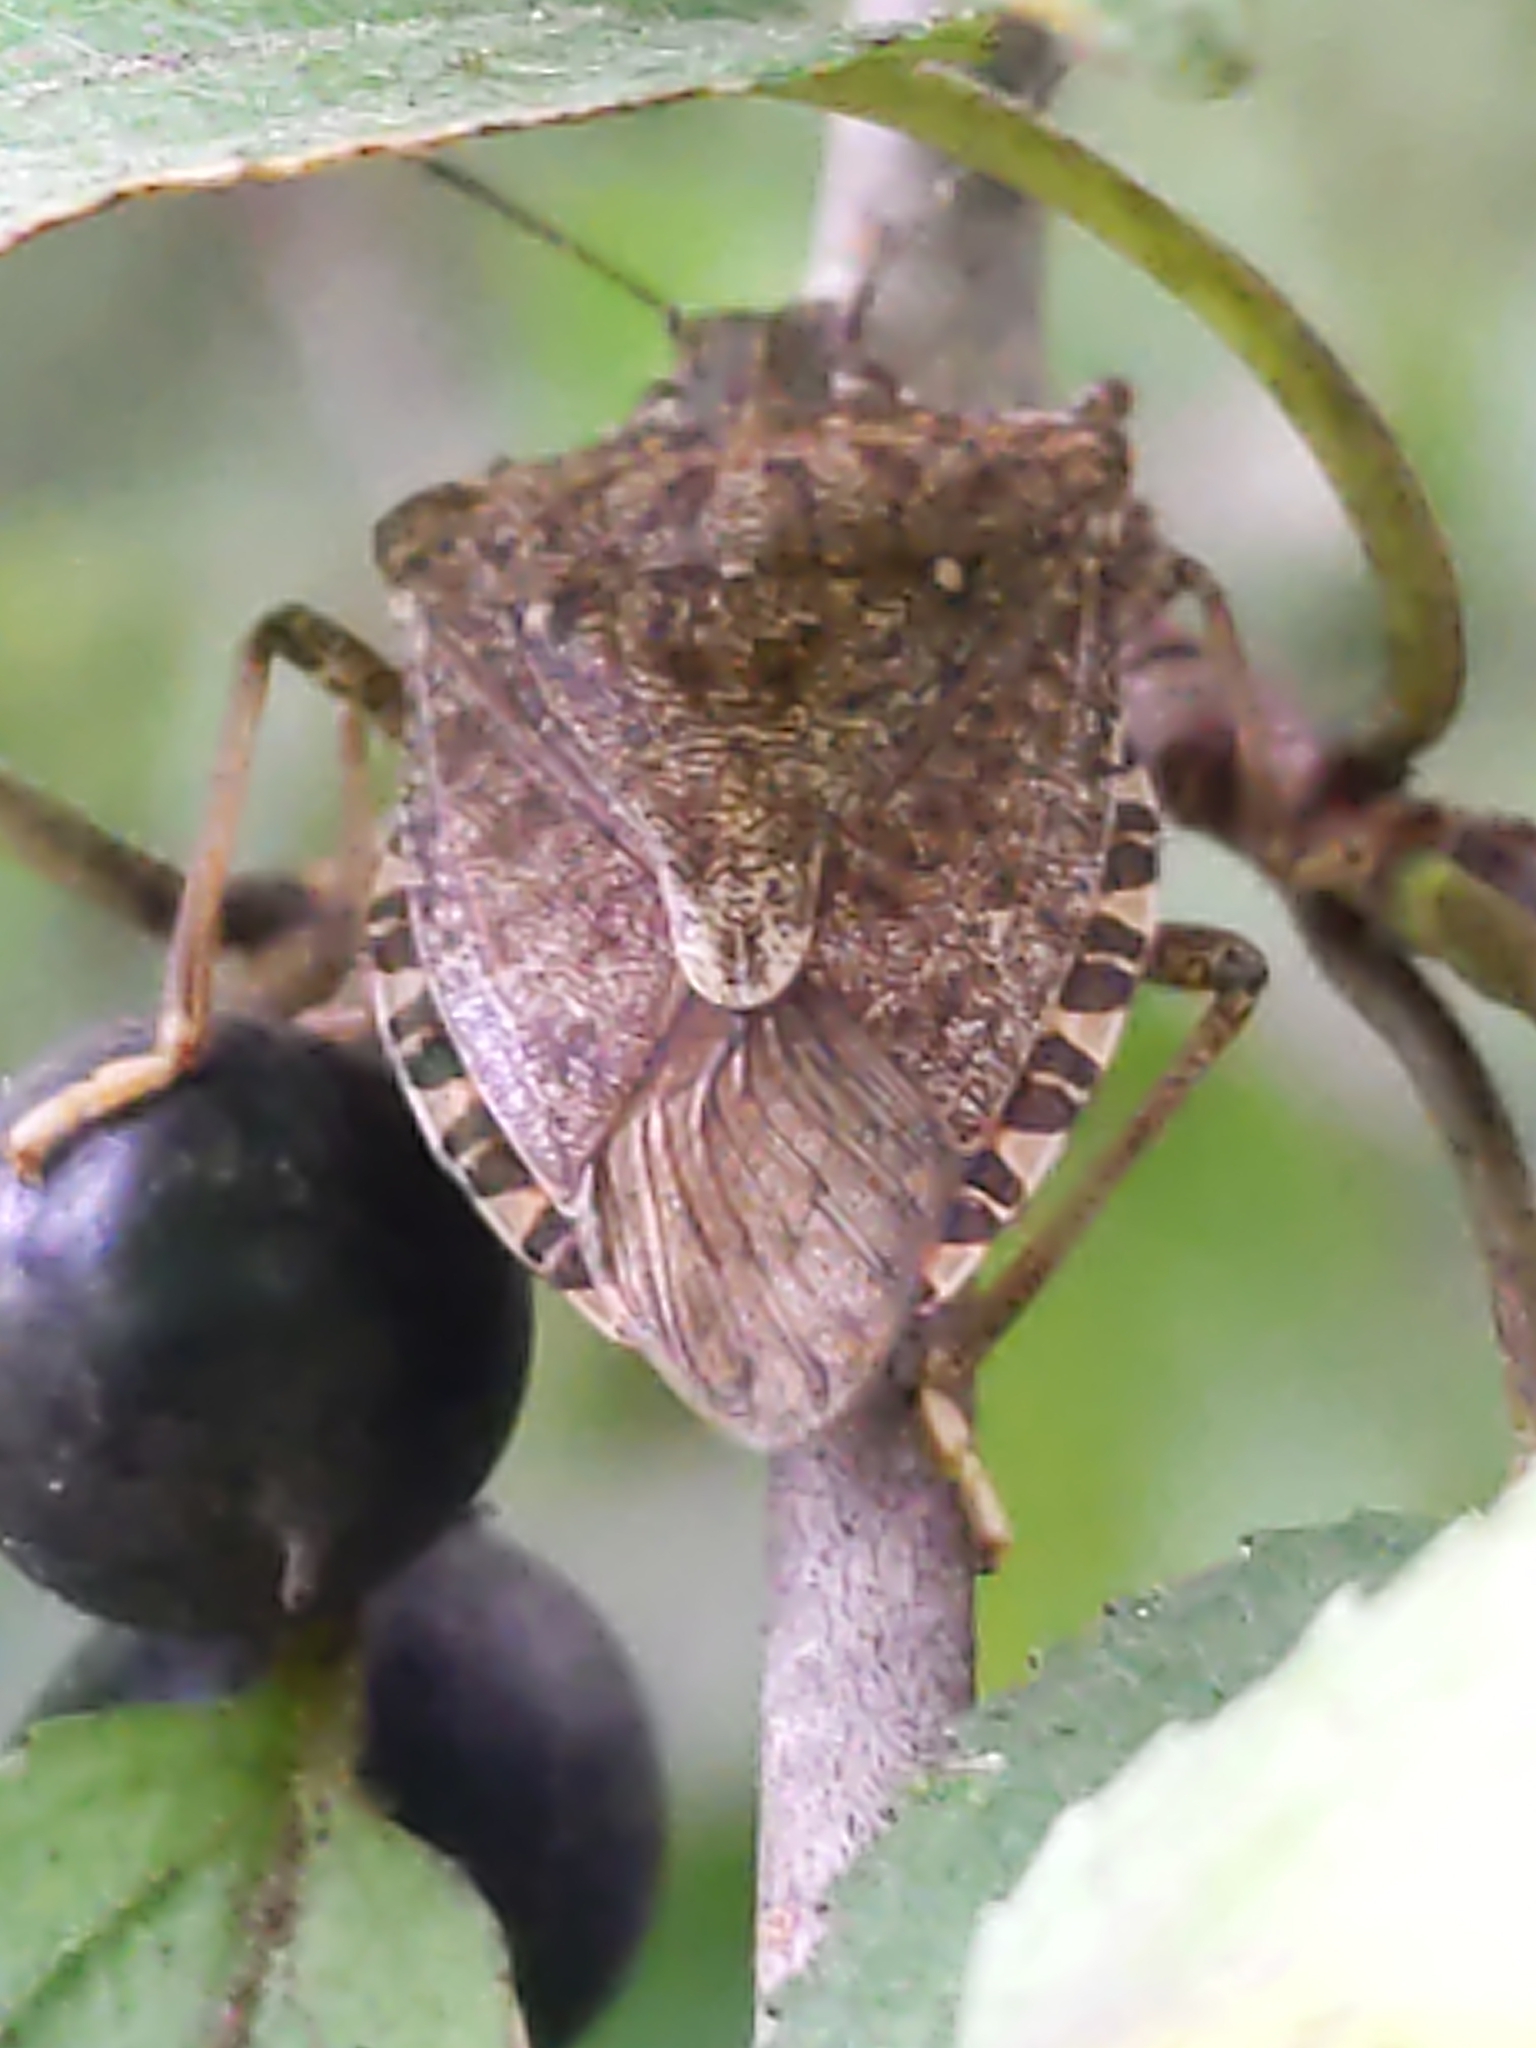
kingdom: Animalia
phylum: Arthropoda
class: Insecta
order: Hemiptera
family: Pentatomidae
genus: Halyomorpha
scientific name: Halyomorpha halys
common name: Brown marmorated stink bug
